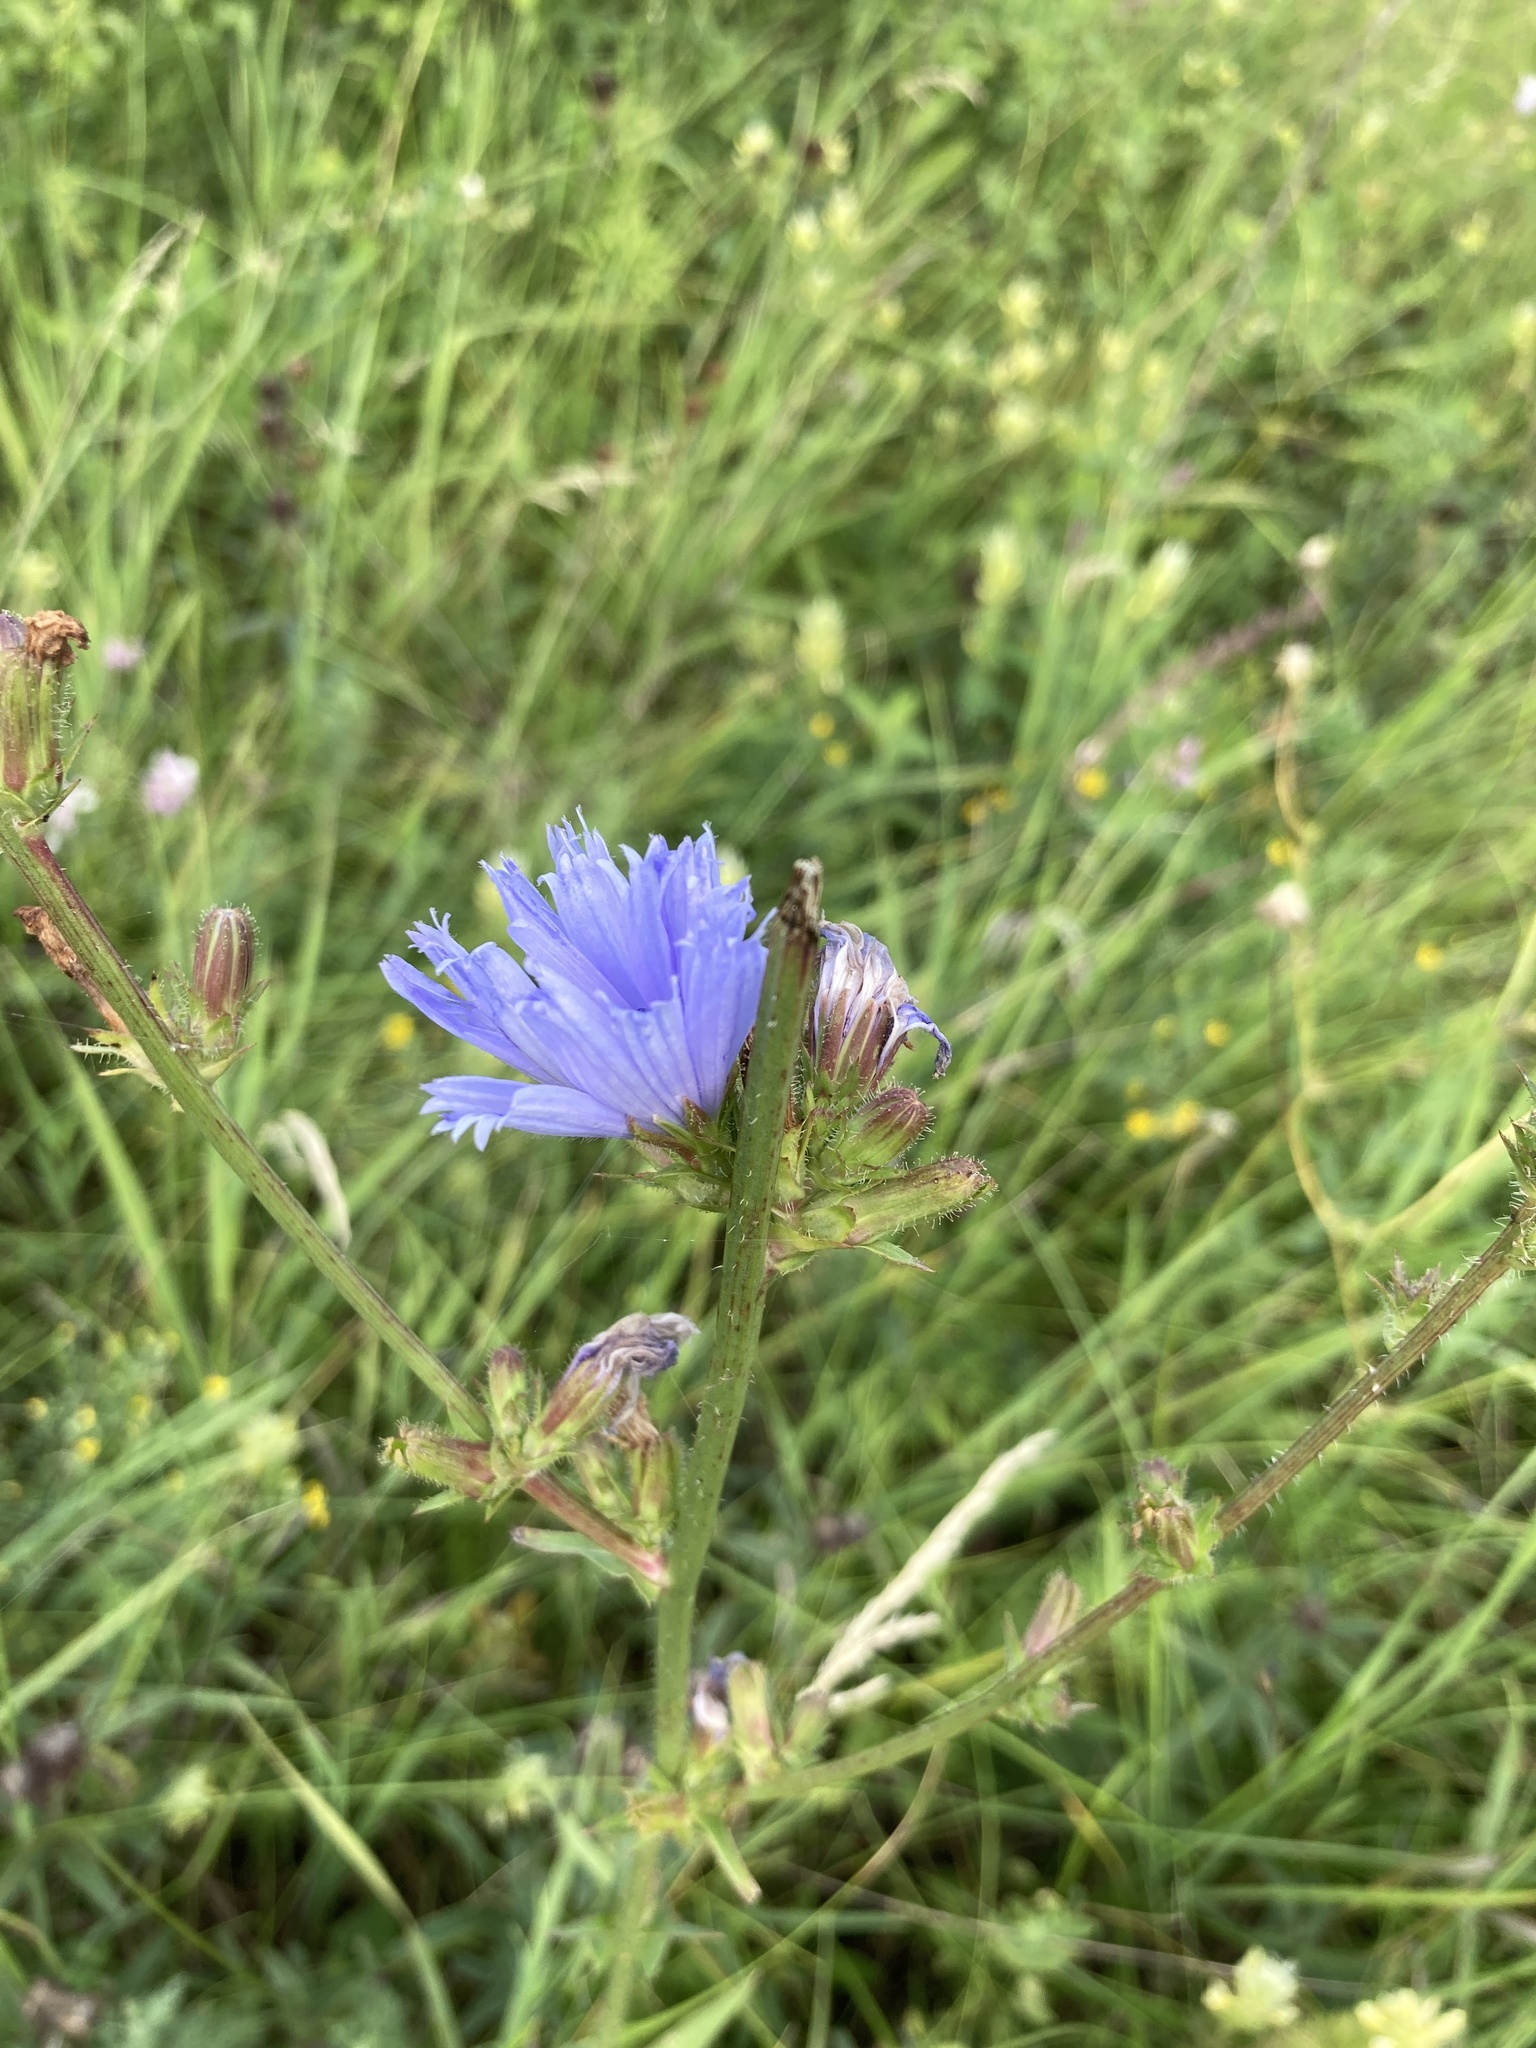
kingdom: Plantae
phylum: Tracheophyta
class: Magnoliopsida
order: Asterales
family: Asteraceae
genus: Cichorium
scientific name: Cichorium intybus
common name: Chicory
